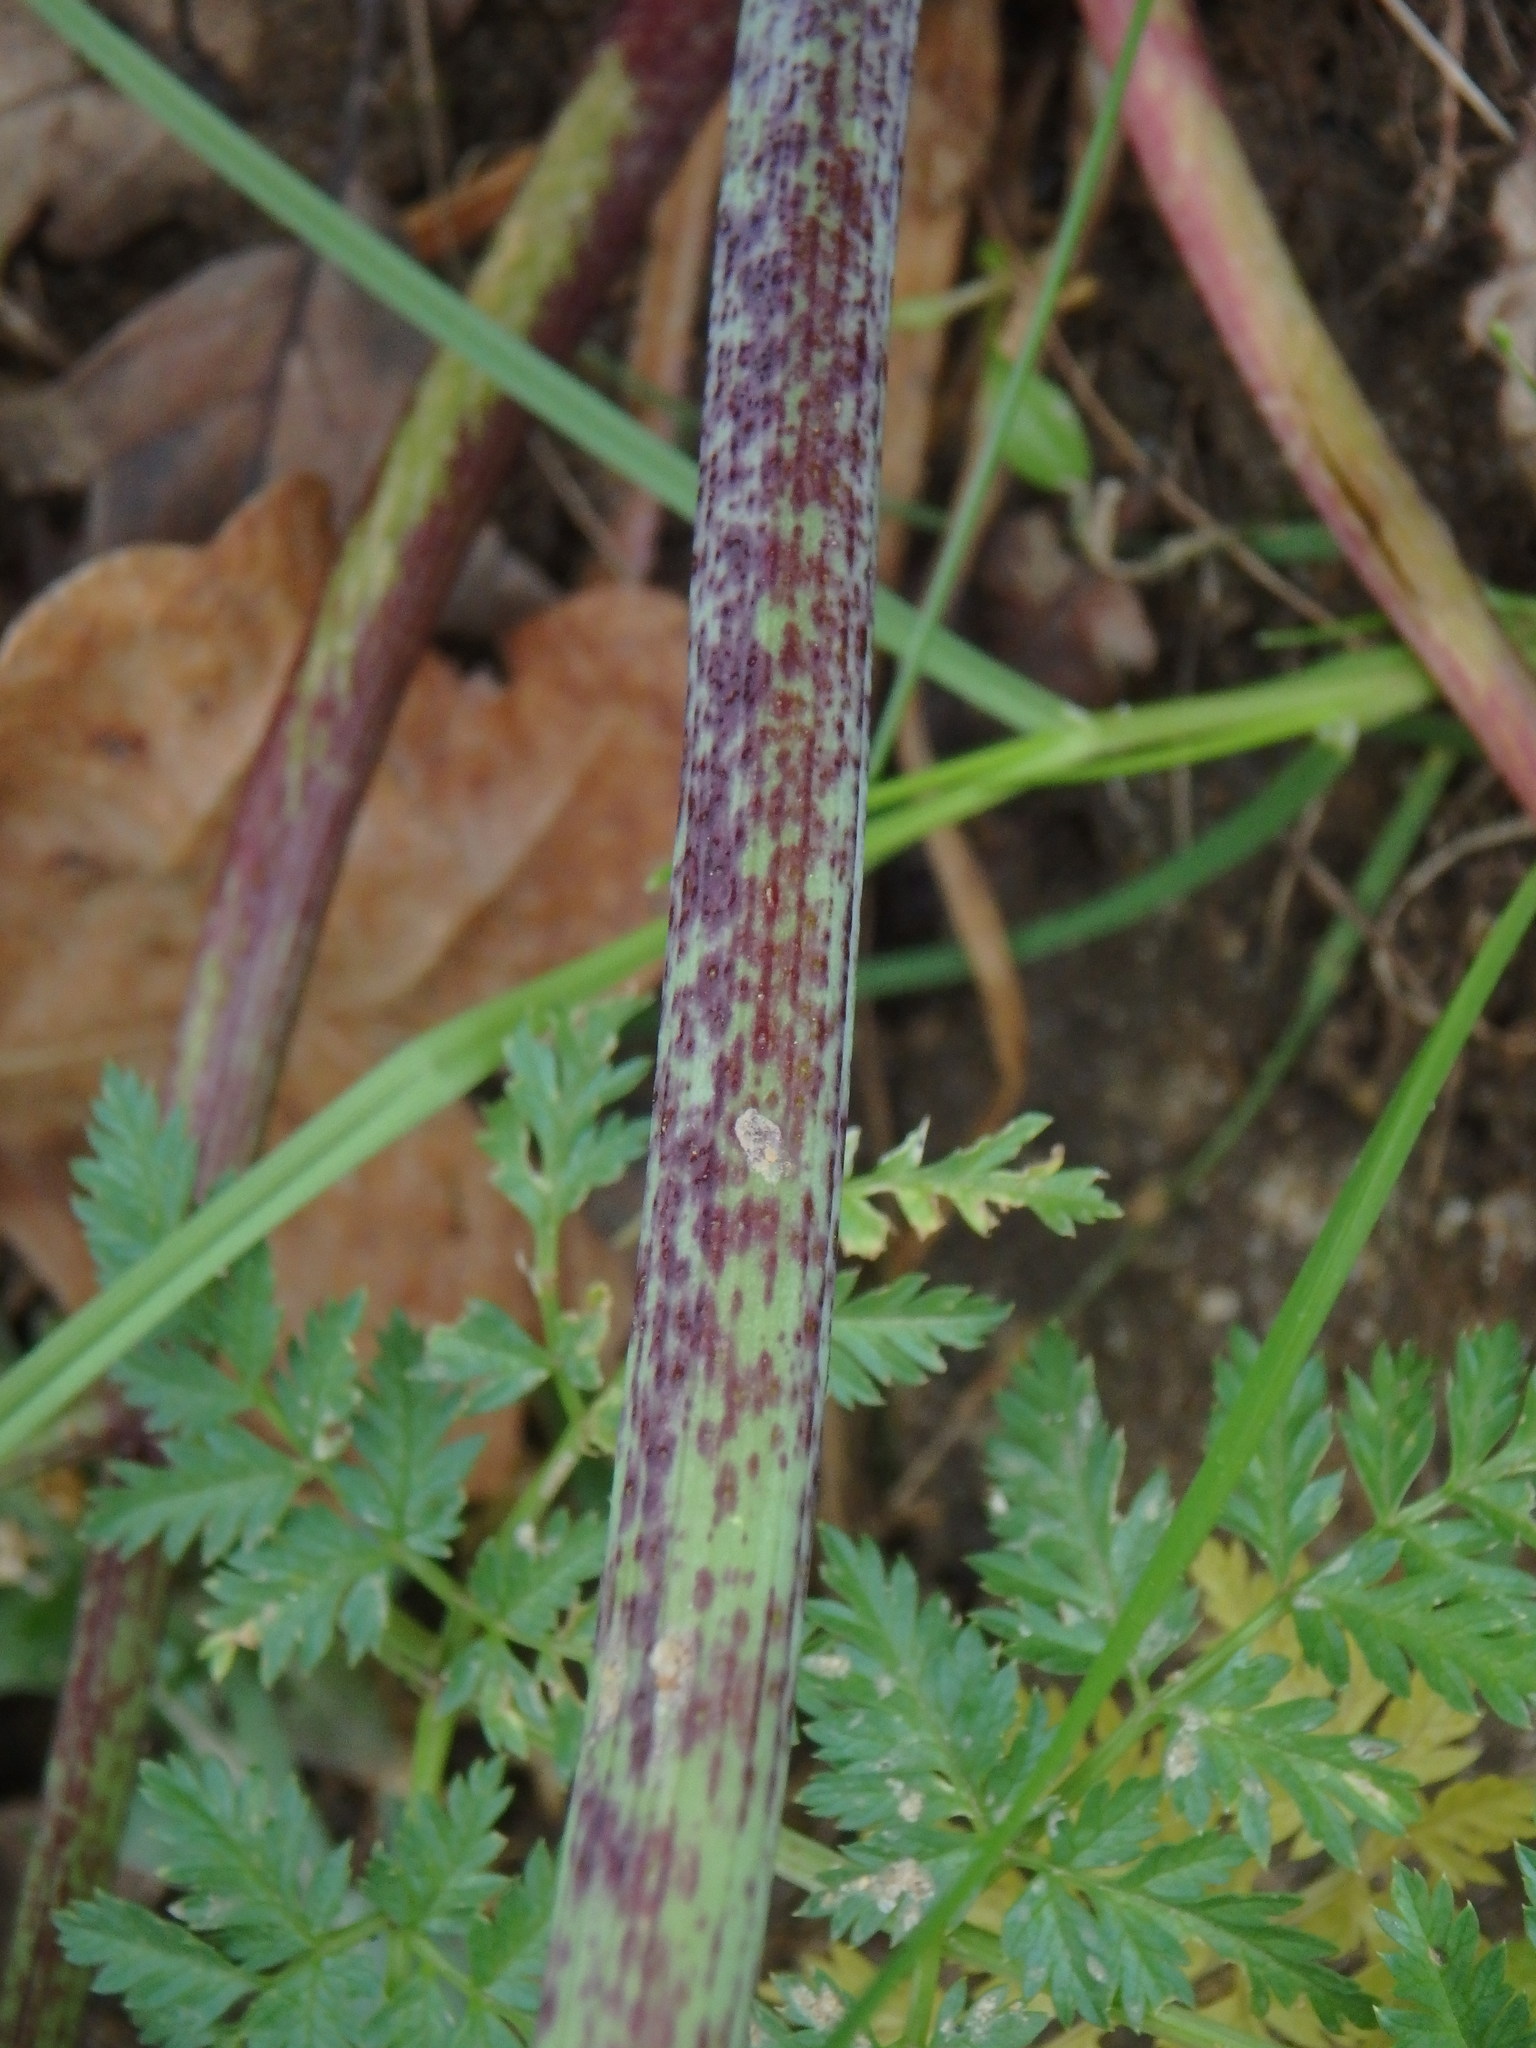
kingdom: Plantae
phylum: Tracheophyta
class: Magnoliopsida
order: Apiales
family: Apiaceae
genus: Conium
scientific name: Conium maculatum
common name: Hemlock
